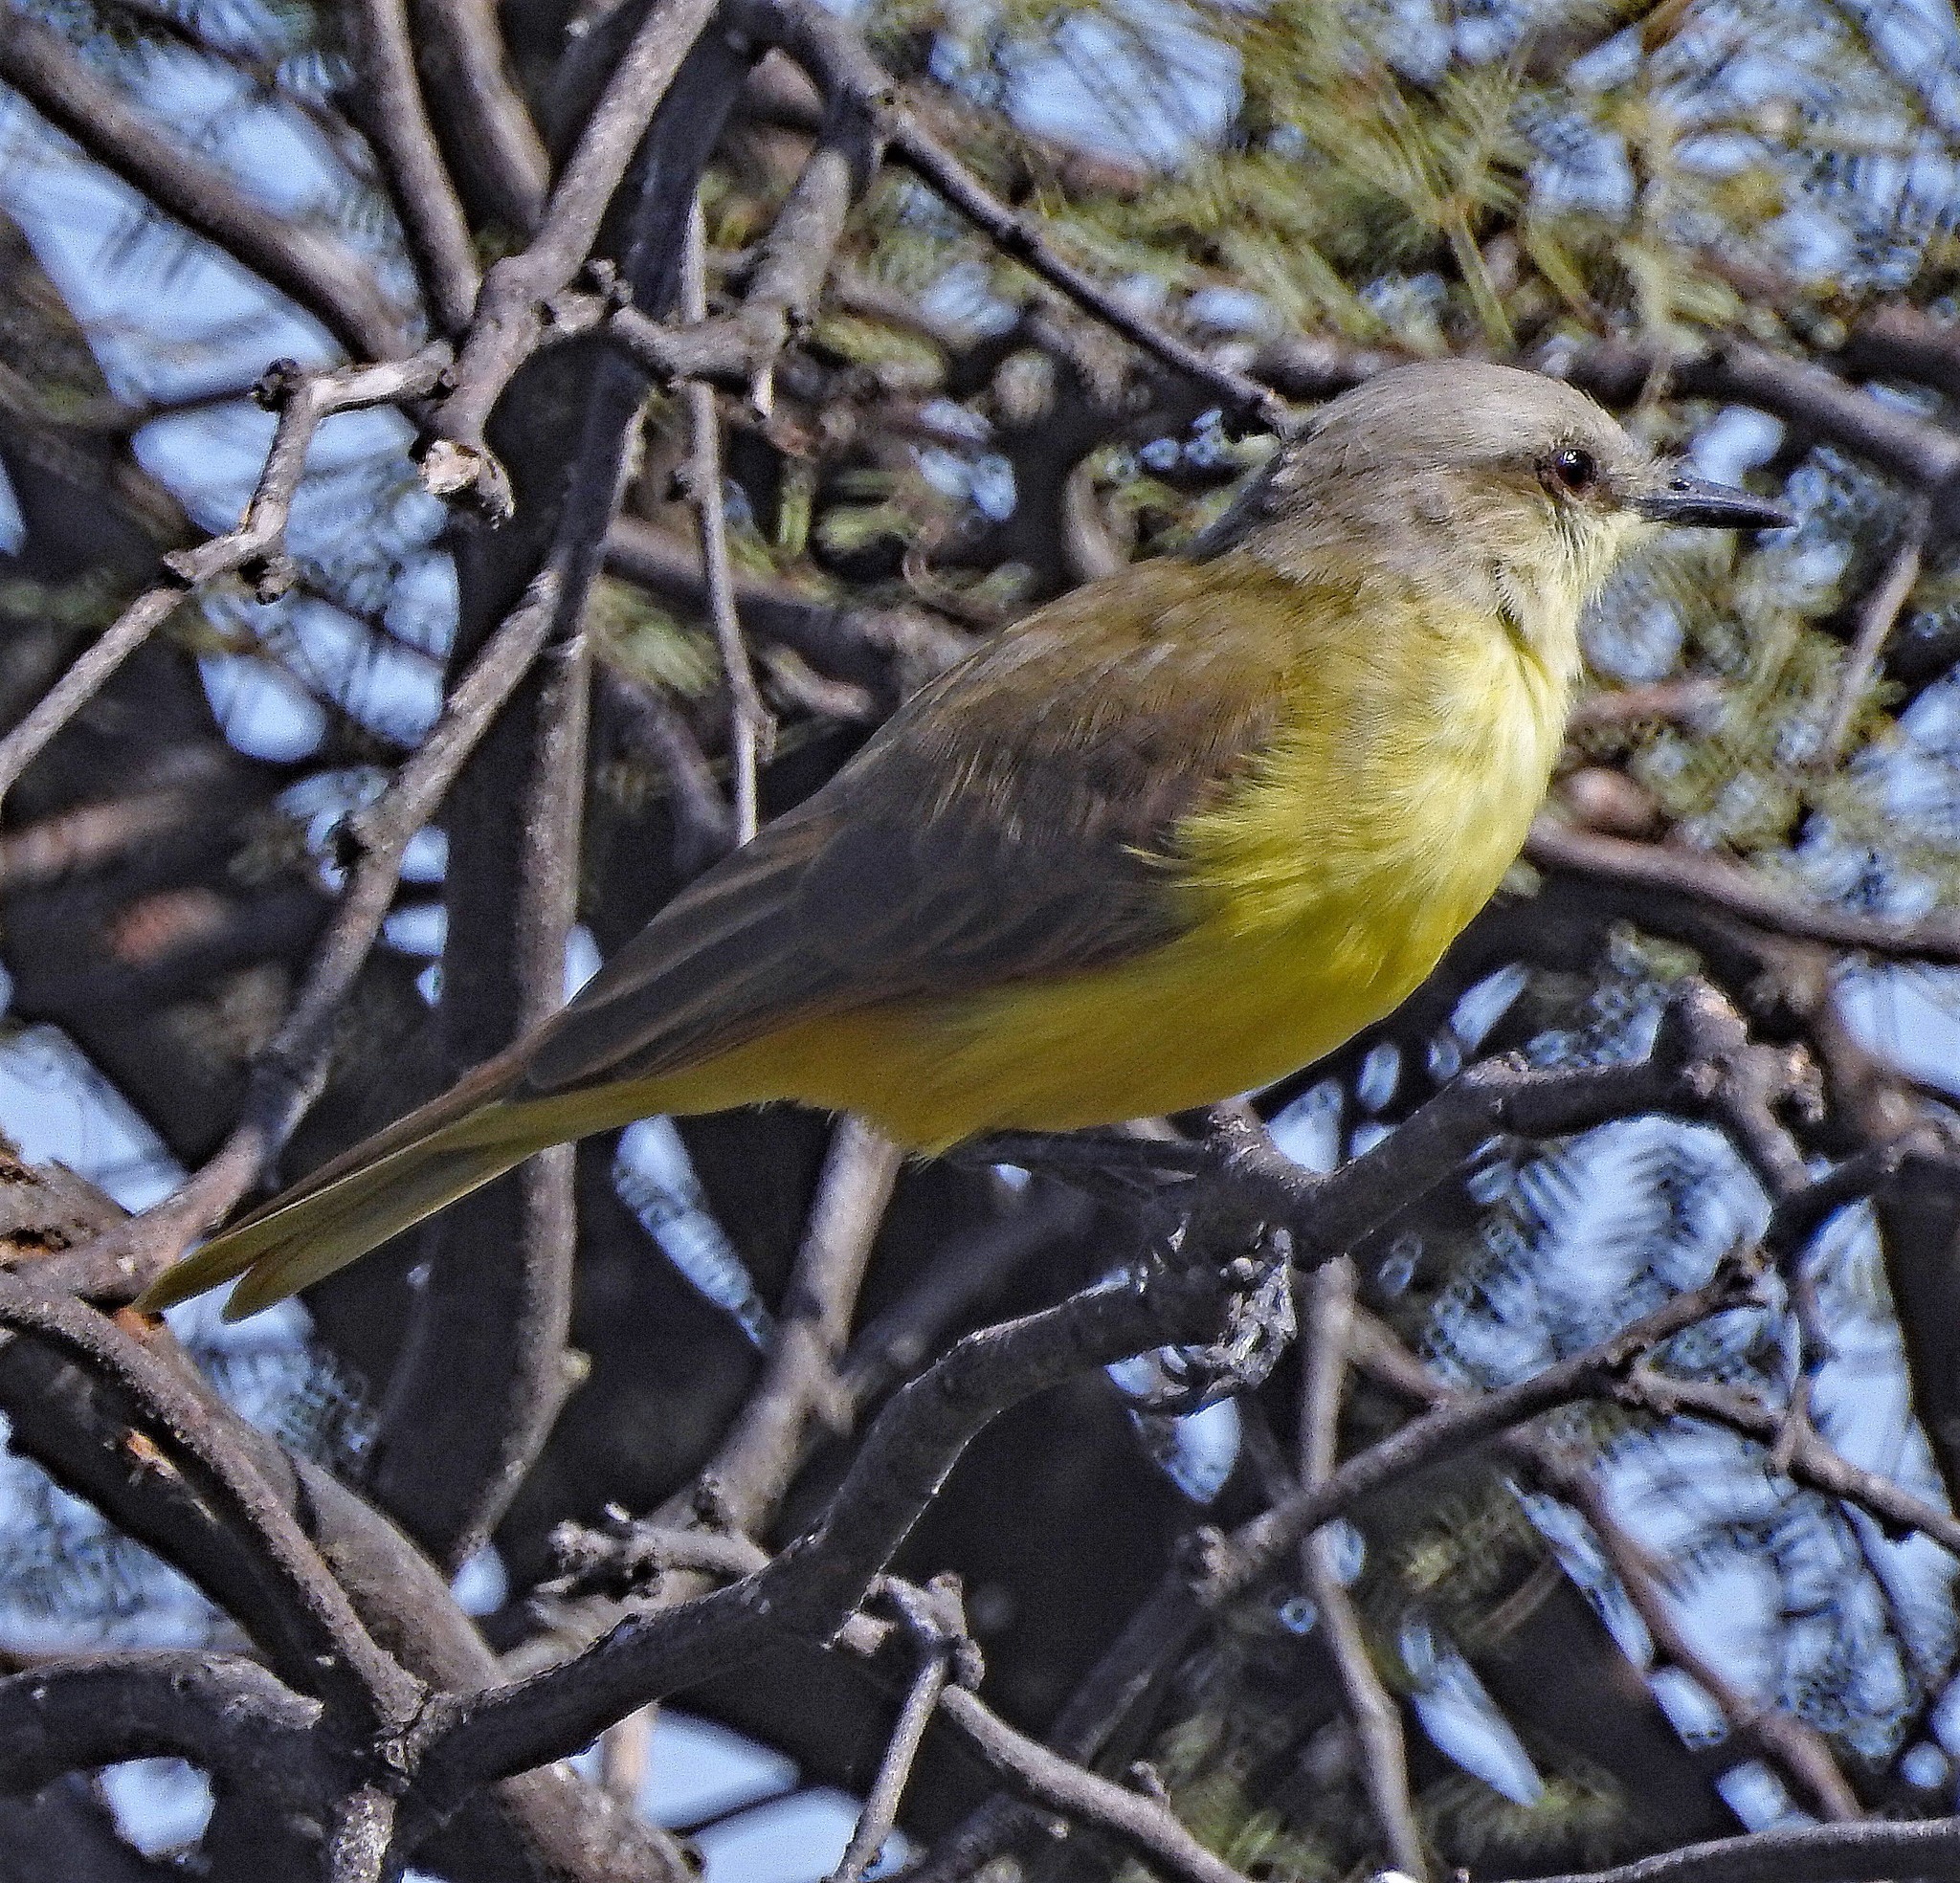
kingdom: Animalia
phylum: Chordata
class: Aves
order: Passeriformes
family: Tyrannidae
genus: Machetornis
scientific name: Machetornis rixosa
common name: Cattle tyrant
